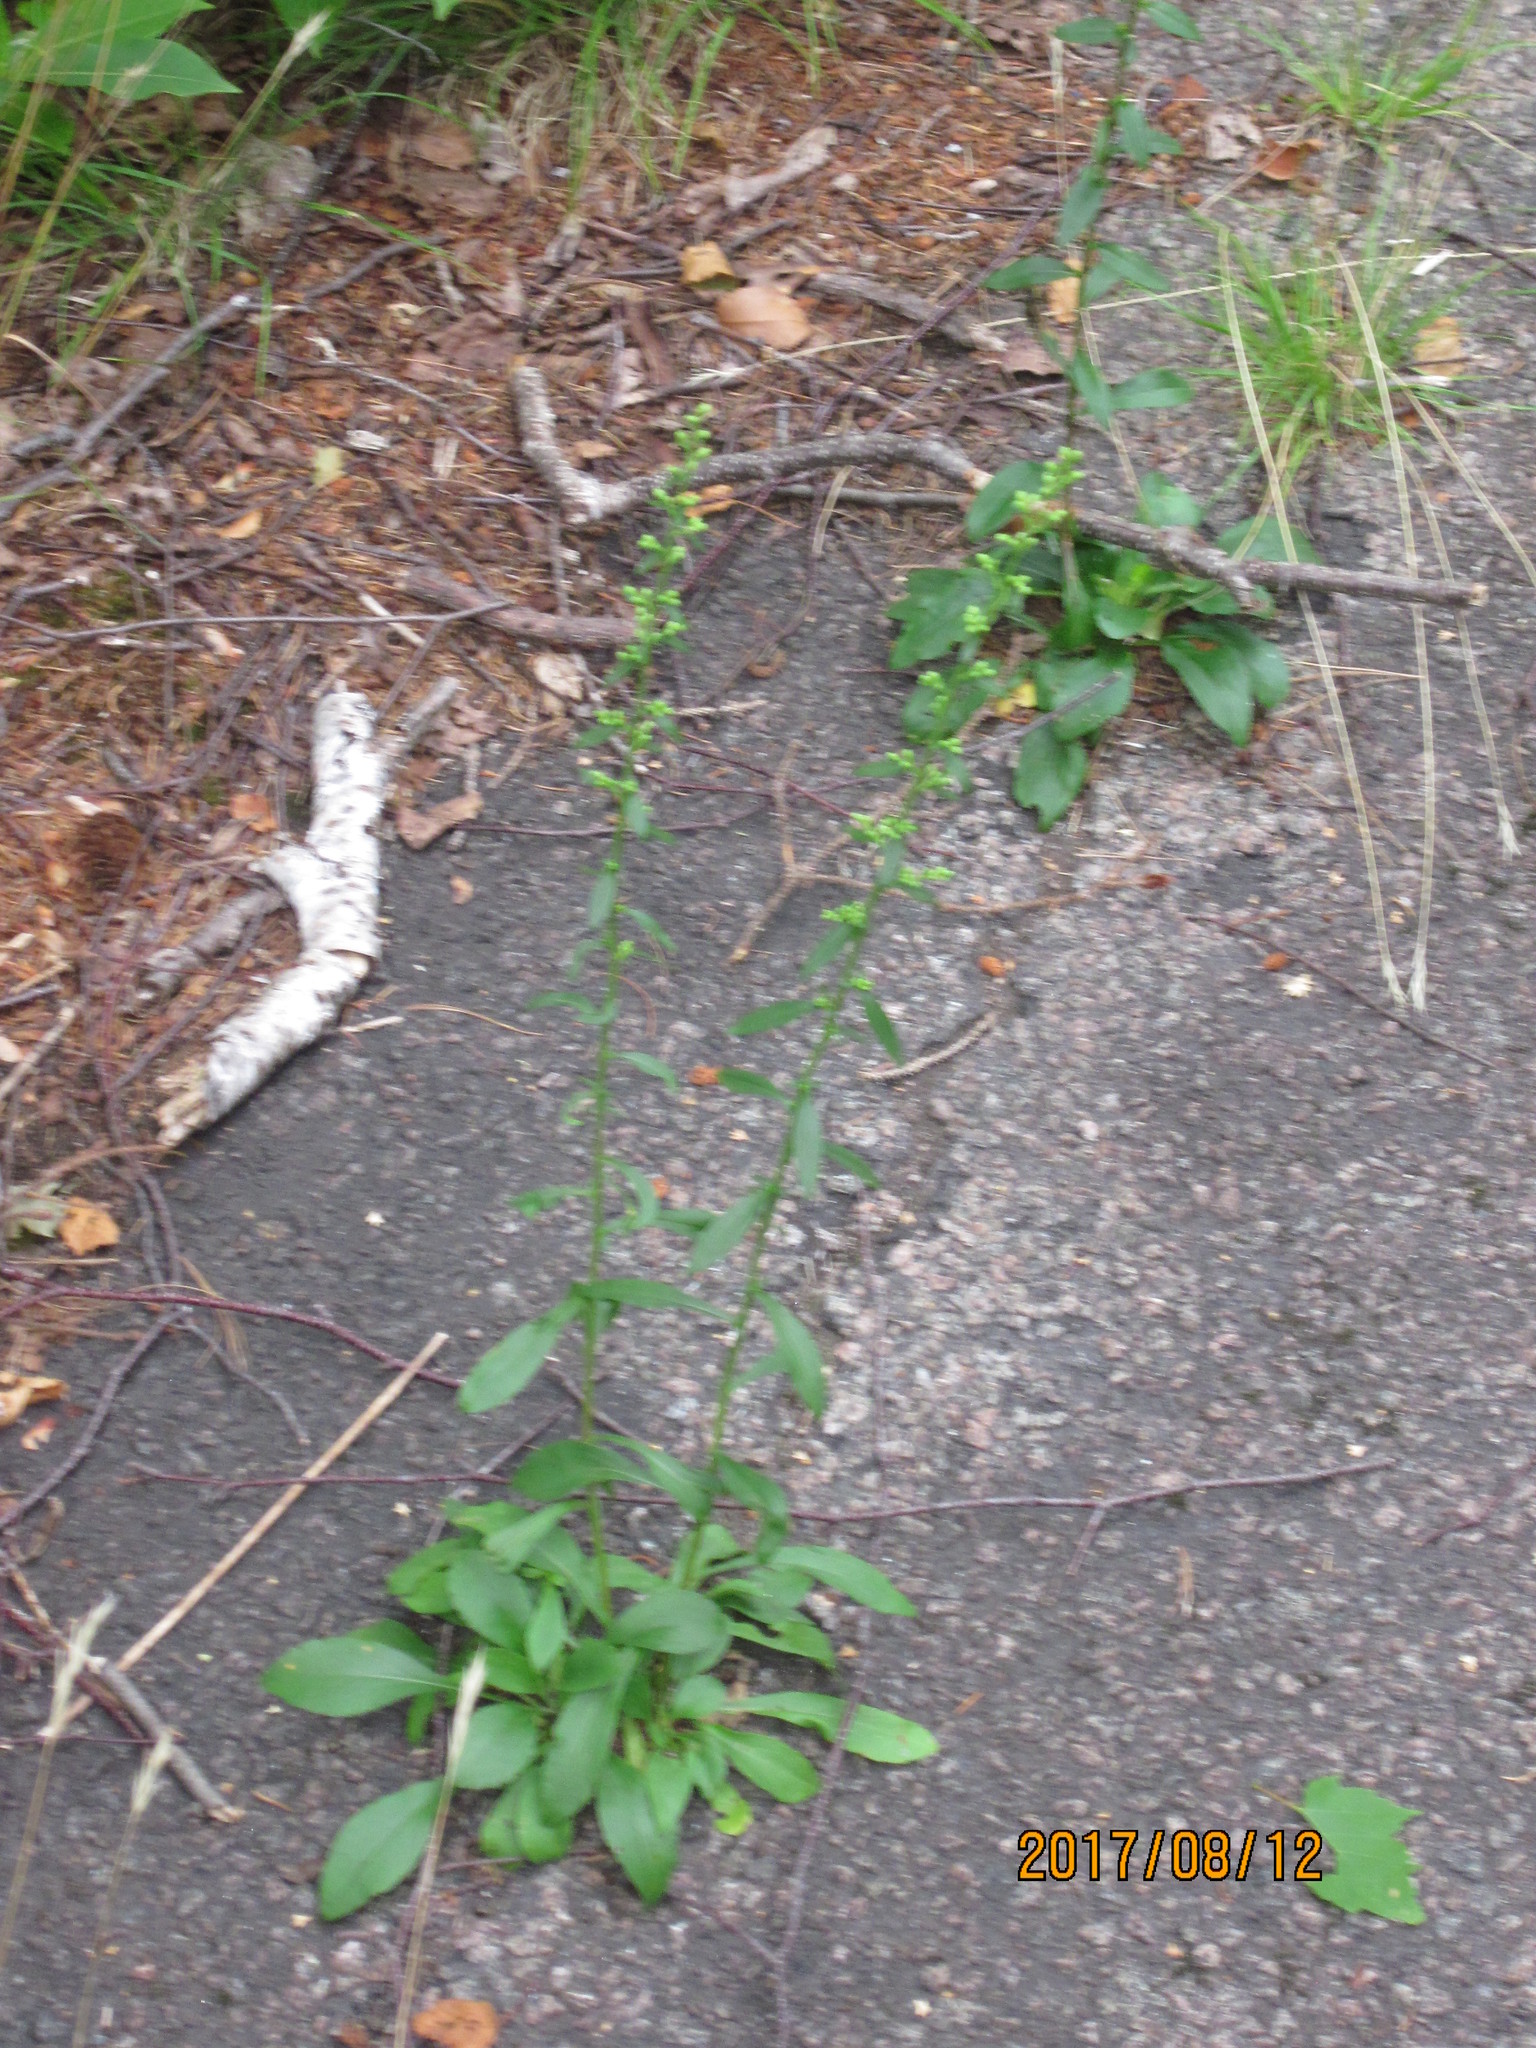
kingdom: Plantae
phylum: Tracheophyta
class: Magnoliopsida
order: Asterales
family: Asteraceae
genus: Solidago
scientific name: Solidago bicolor
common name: Silverrod
